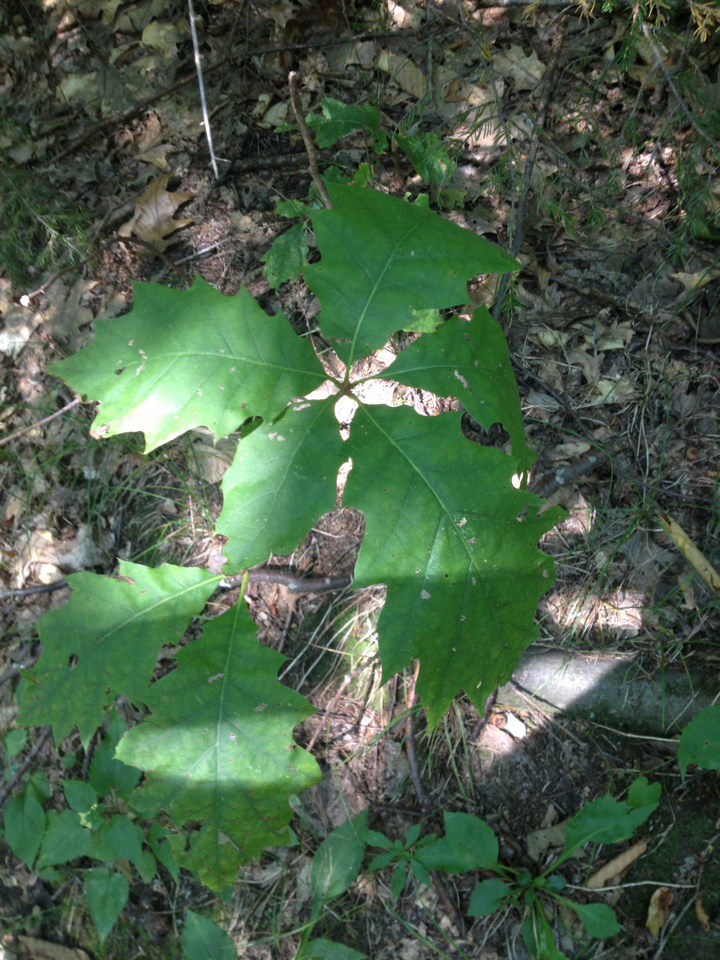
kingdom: Plantae
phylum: Tracheophyta
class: Magnoliopsida
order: Fagales
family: Fagaceae
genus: Quercus
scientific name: Quercus rubra
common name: Red oak
